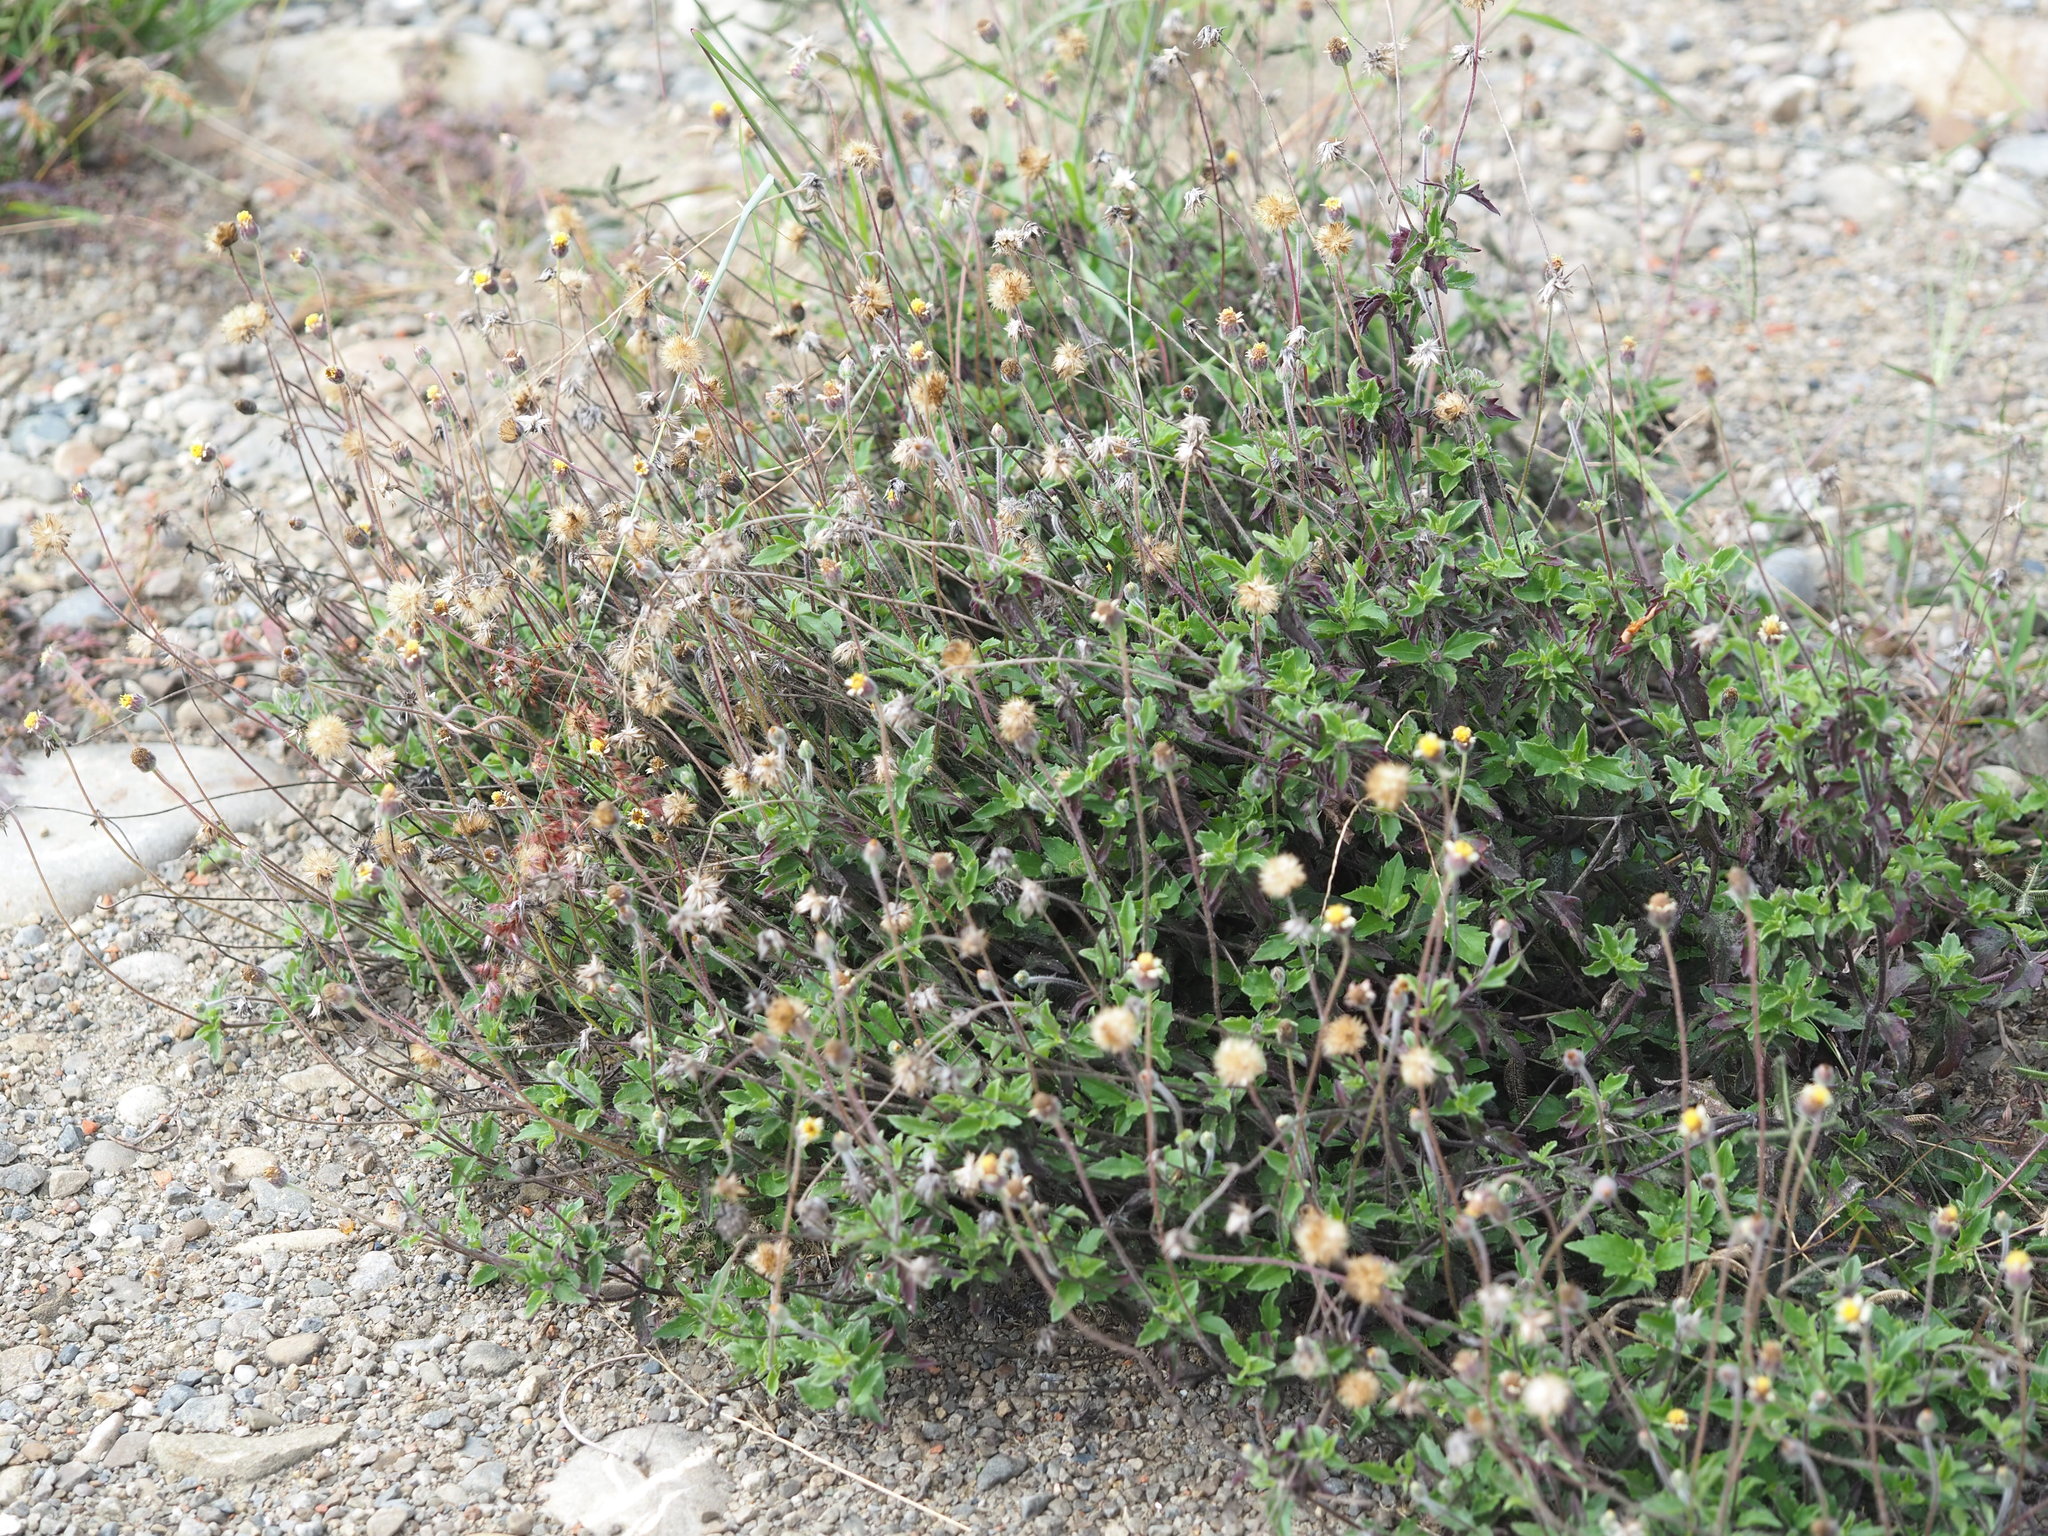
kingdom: Plantae
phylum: Tracheophyta
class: Magnoliopsida
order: Asterales
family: Asteraceae
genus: Tridax
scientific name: Tridax procumbens
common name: Coatbuttons
